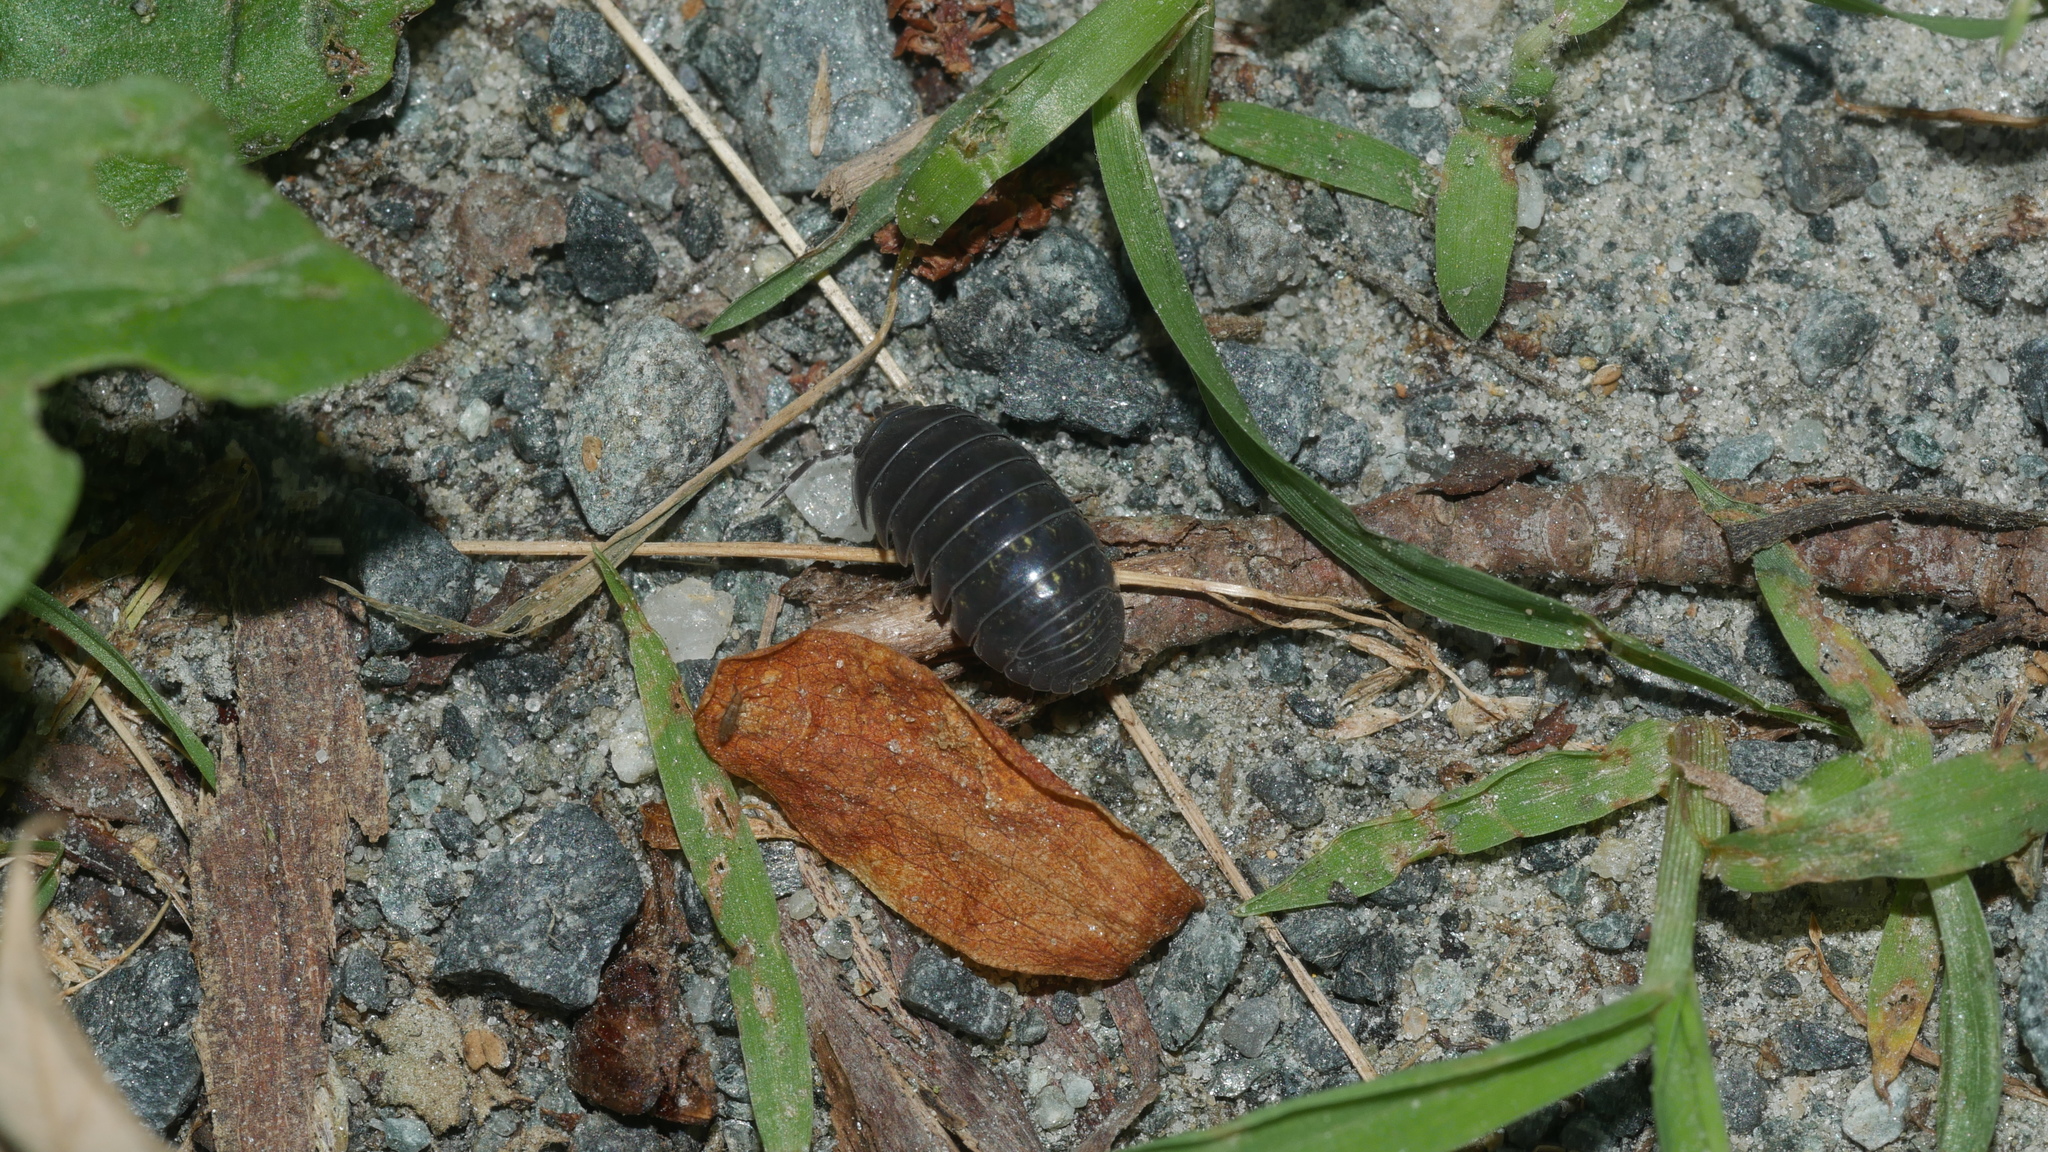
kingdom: Animalia
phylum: Arthropoda
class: Malacostraca
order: Isopoda
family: Armadillidiidae
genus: Armadillidium
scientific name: Armadillidium vulgare
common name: Common pill woodlouse
